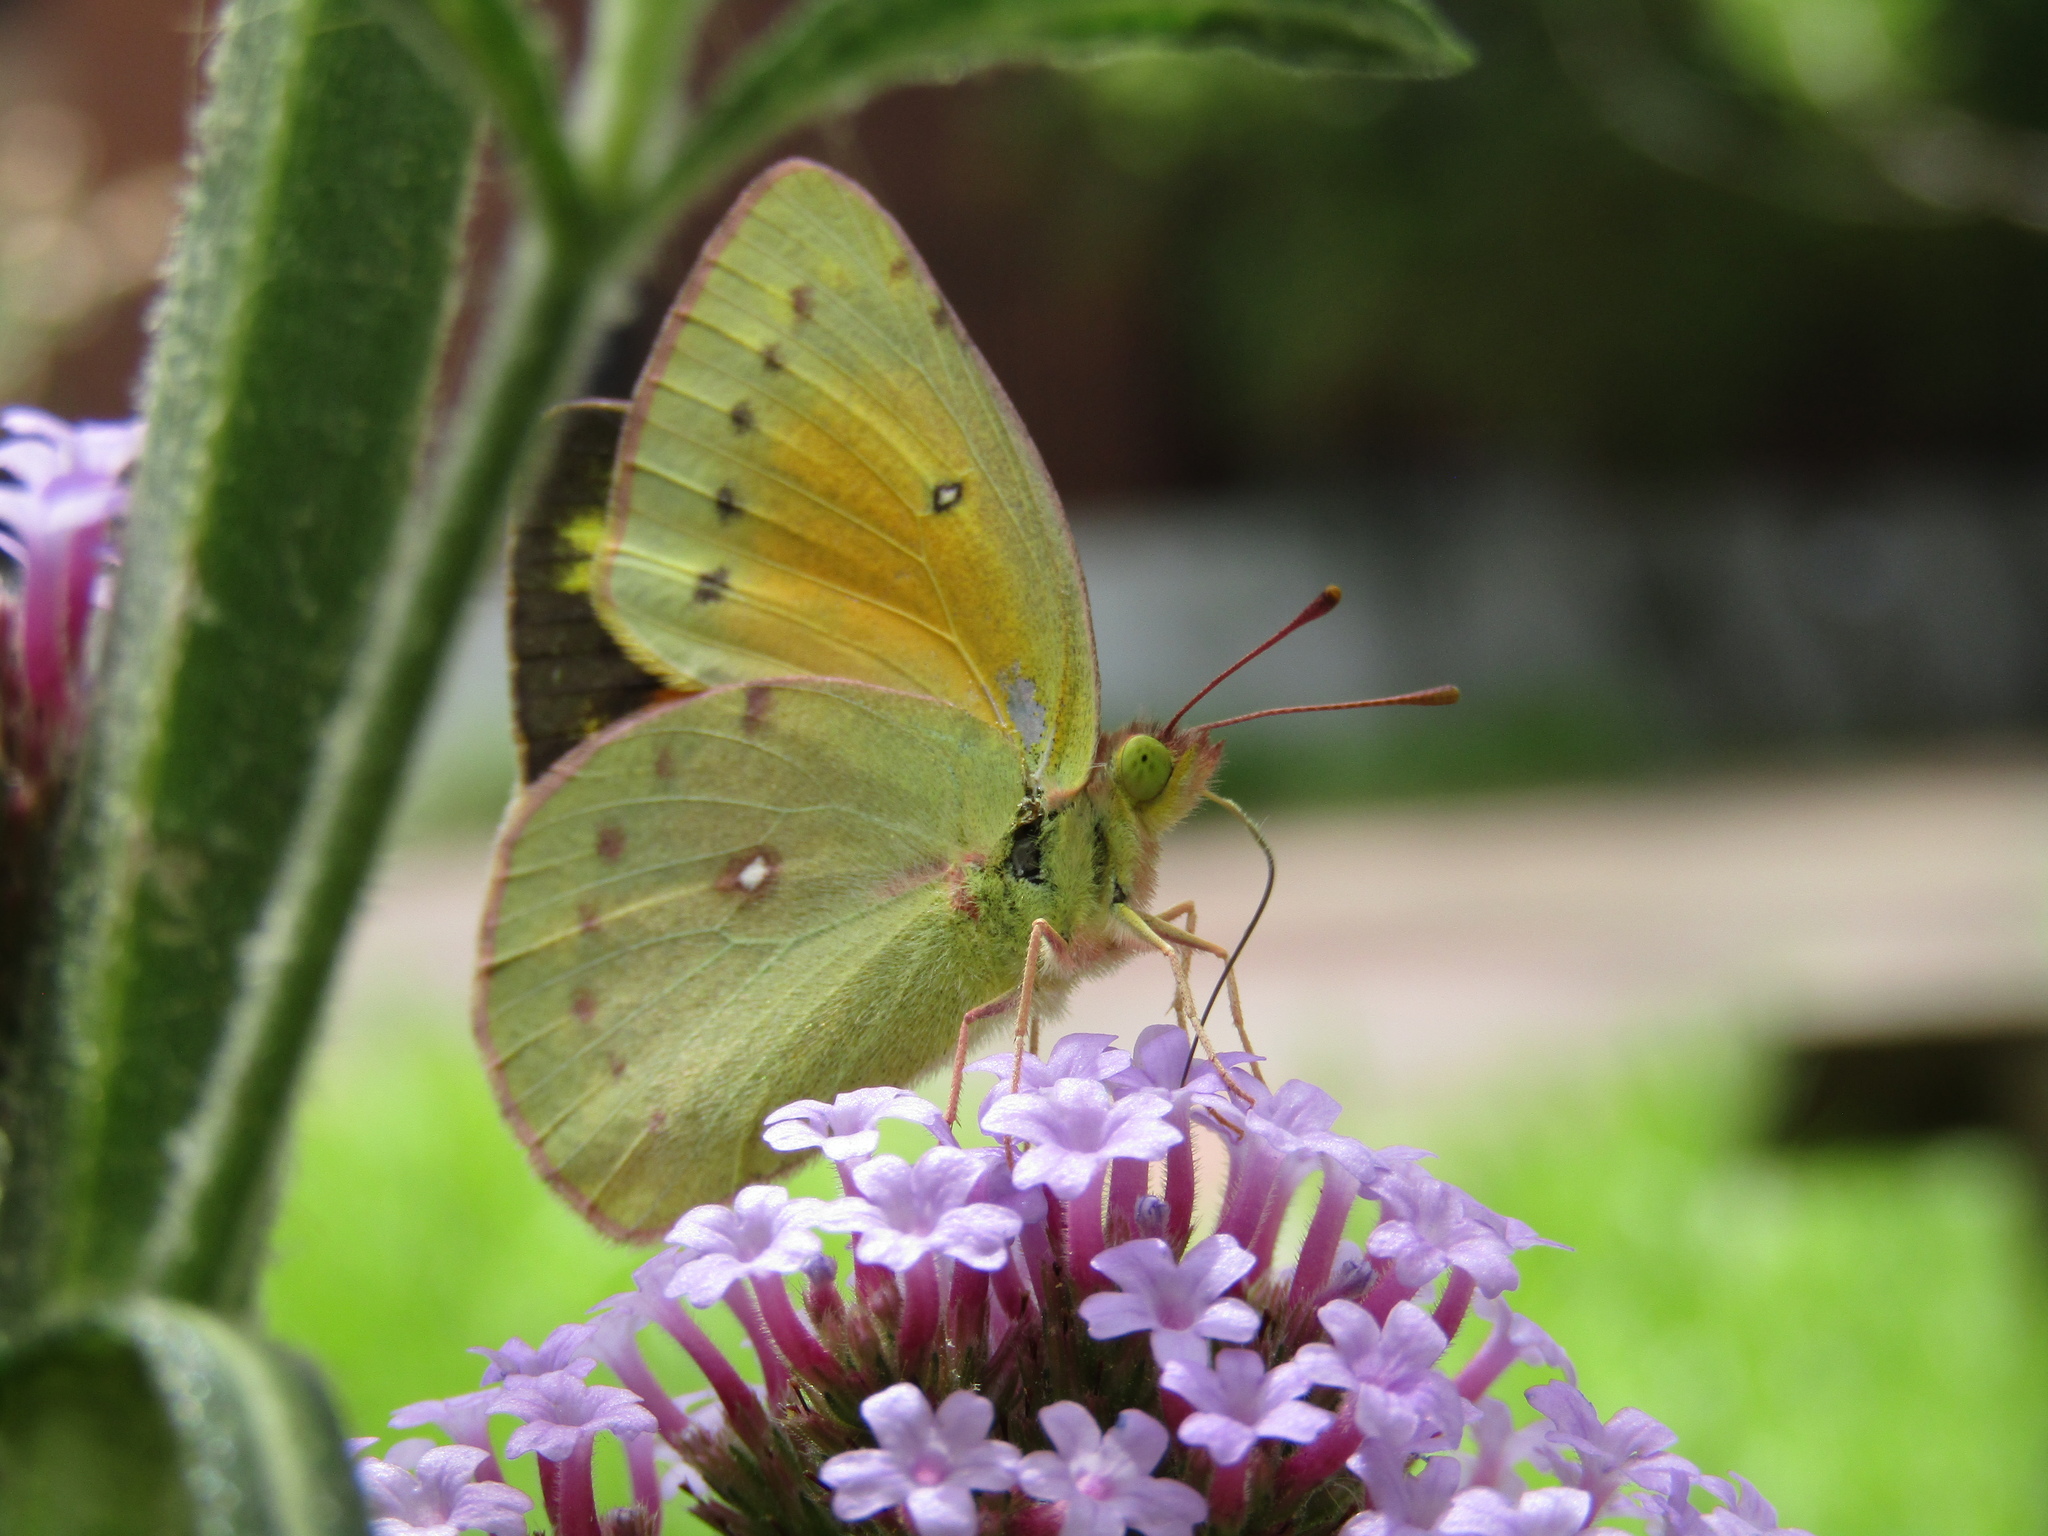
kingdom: Animalia
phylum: Arthropoda
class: Insecta
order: Lepidoptera
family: Pieridae
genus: Colias
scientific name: Colias lesbia
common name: Lesbia clouded yellow
